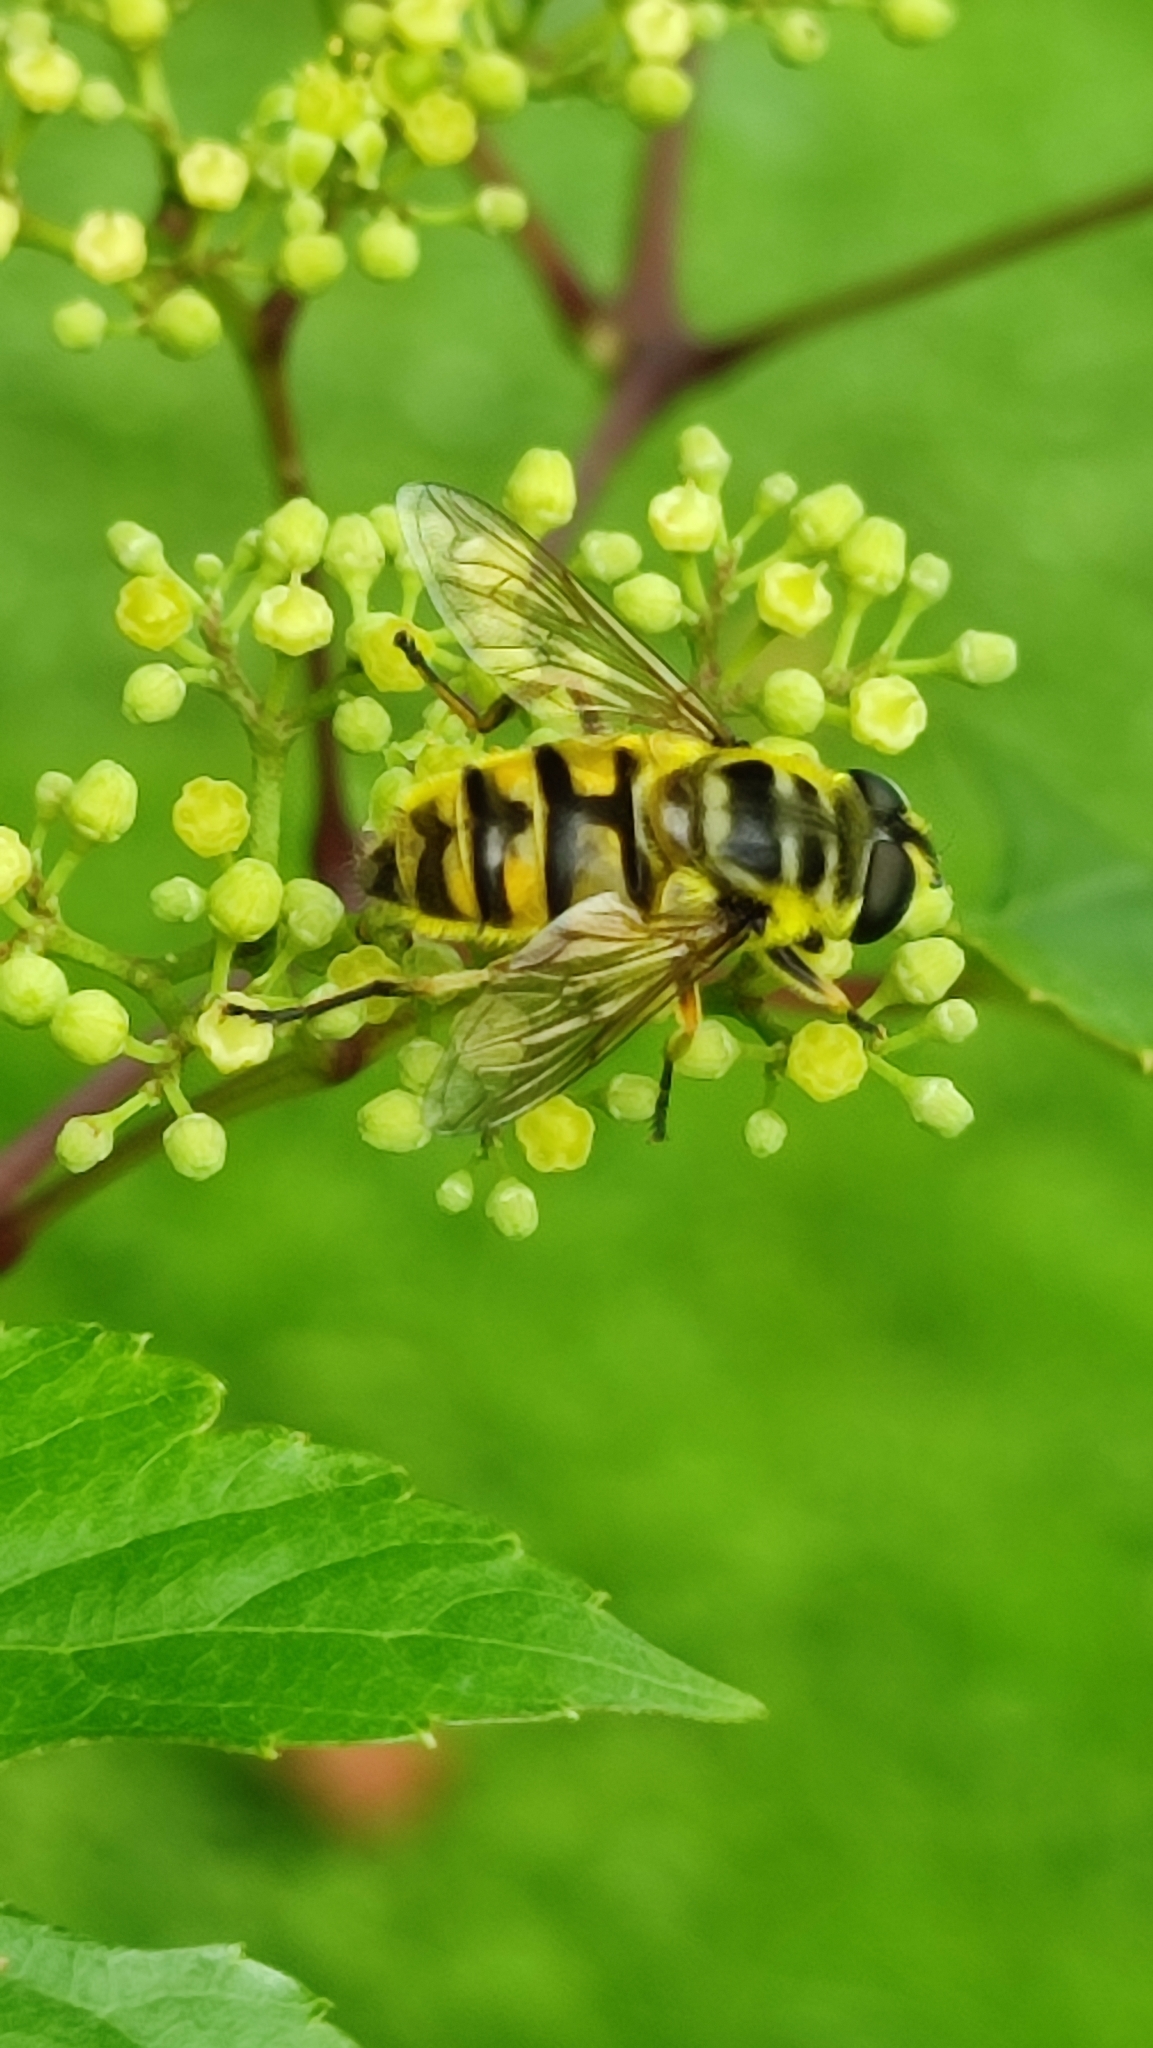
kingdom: Animalia
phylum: Arthropoda
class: Insecta
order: Diptera
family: Syrphidae
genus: Myathropa
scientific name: Myathropa florea
